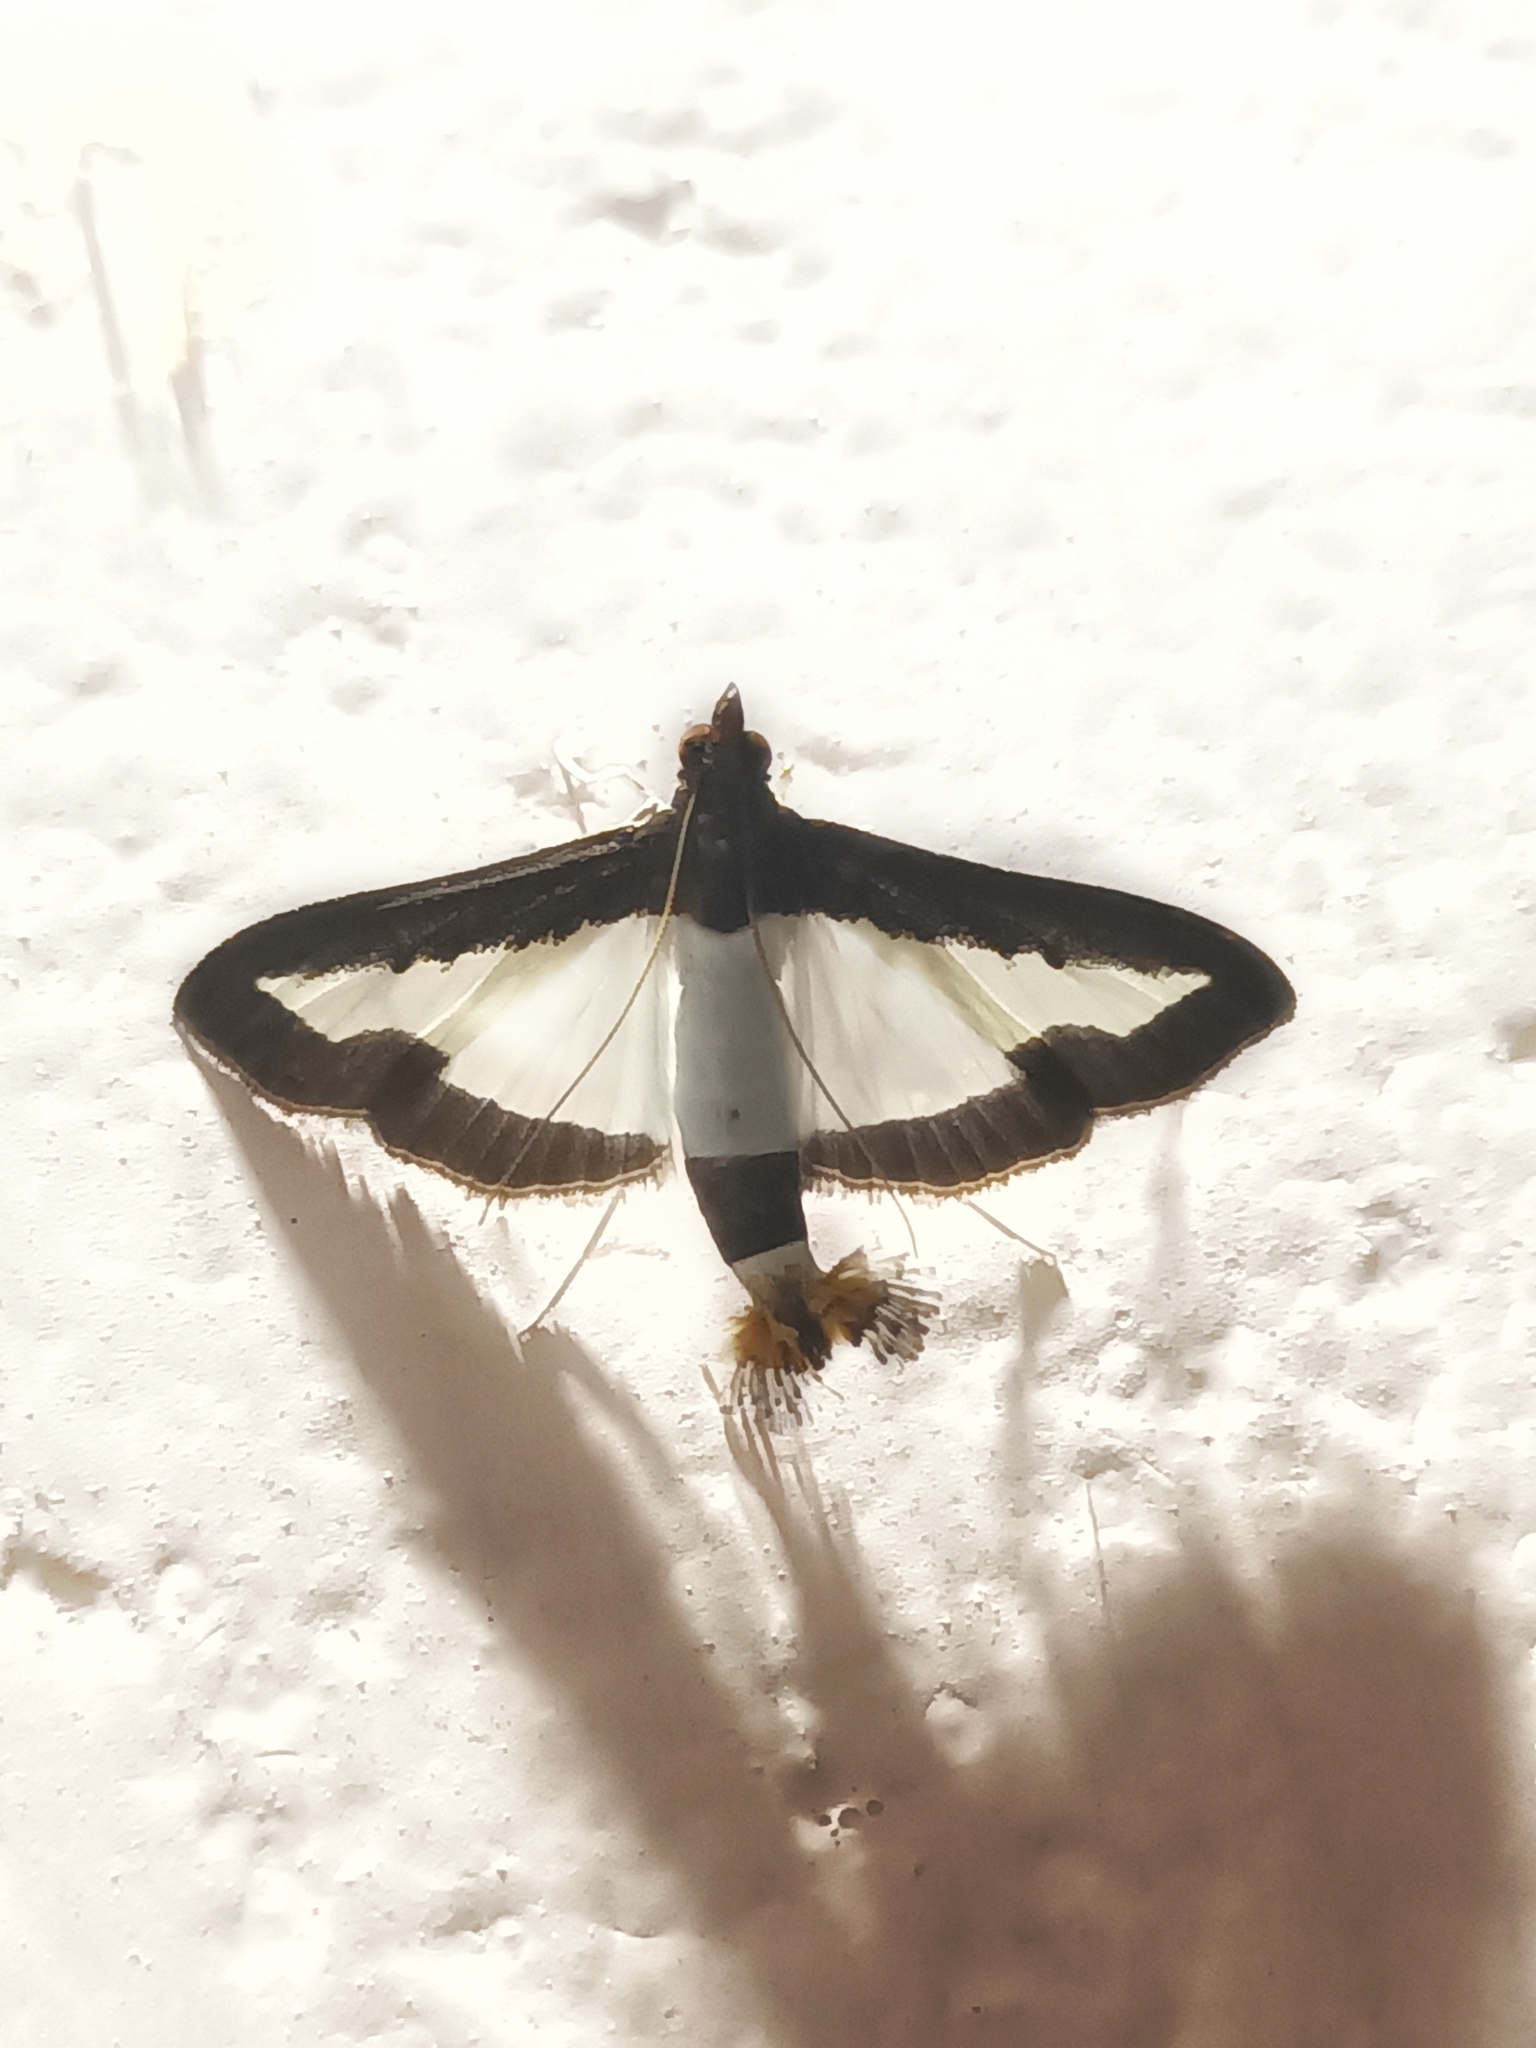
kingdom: Animalia
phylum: Arthropoda
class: Insecta
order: Lepidoptera
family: Crambidae
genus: Diaphania
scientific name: Diaphania indica
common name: Cucumber moth
